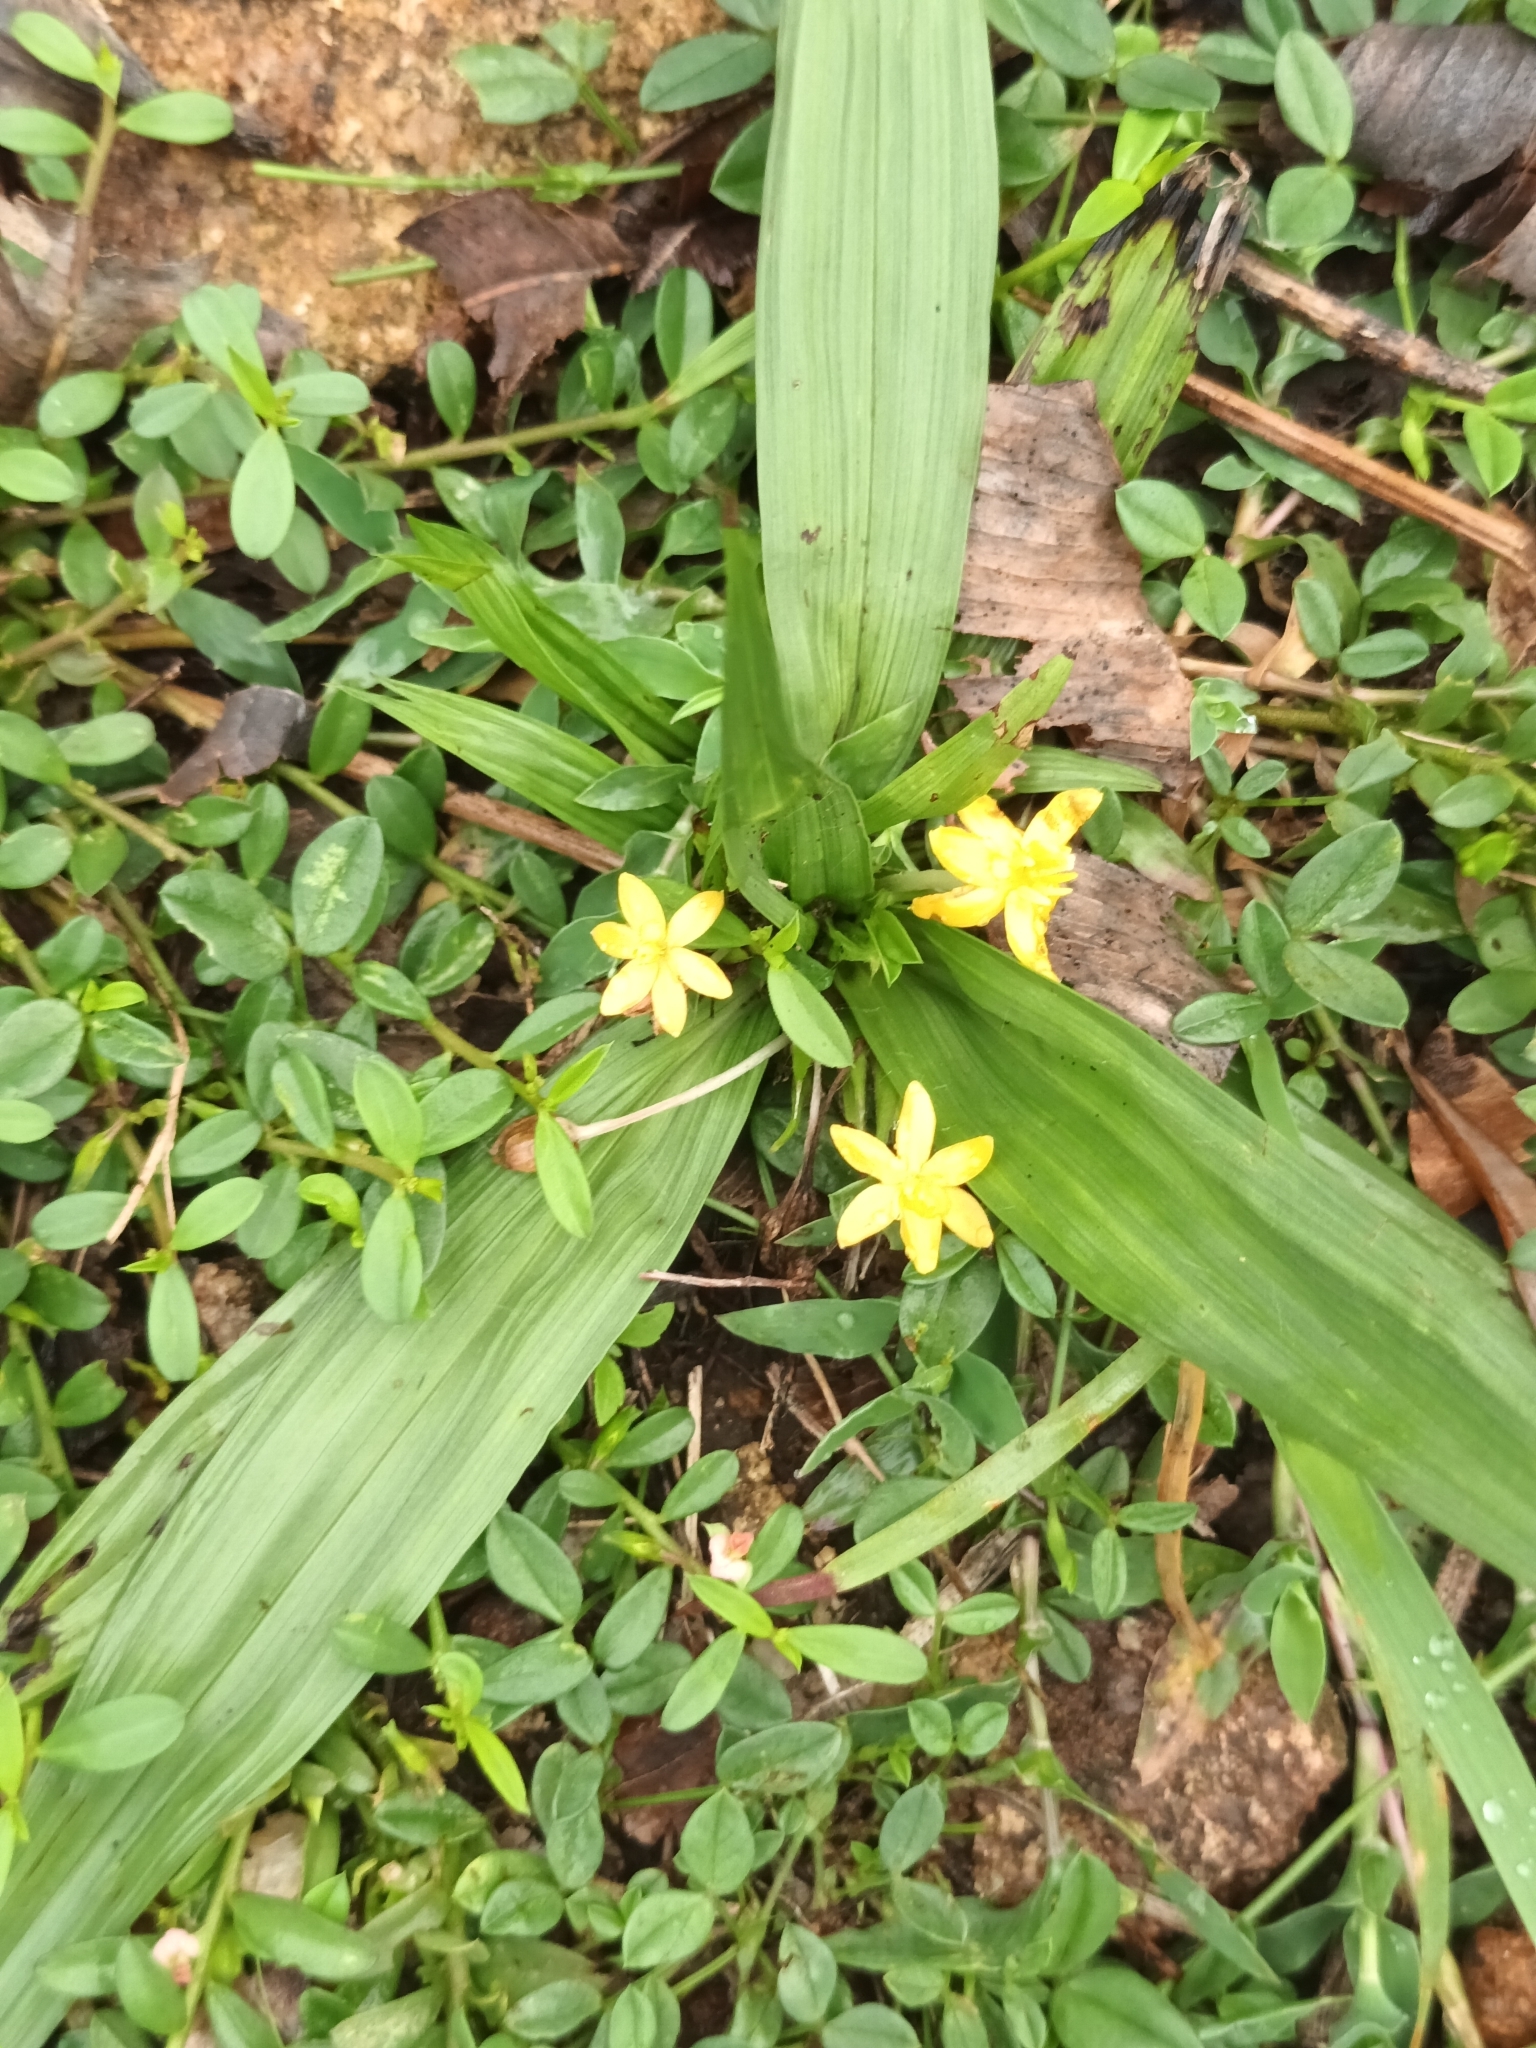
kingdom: Plantae
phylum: Tracheophyta
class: Liliopsida
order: Asparagales
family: Hypoxidaceae
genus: Curculigo
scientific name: Curculigo orchioides
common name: Golden eye-grass
